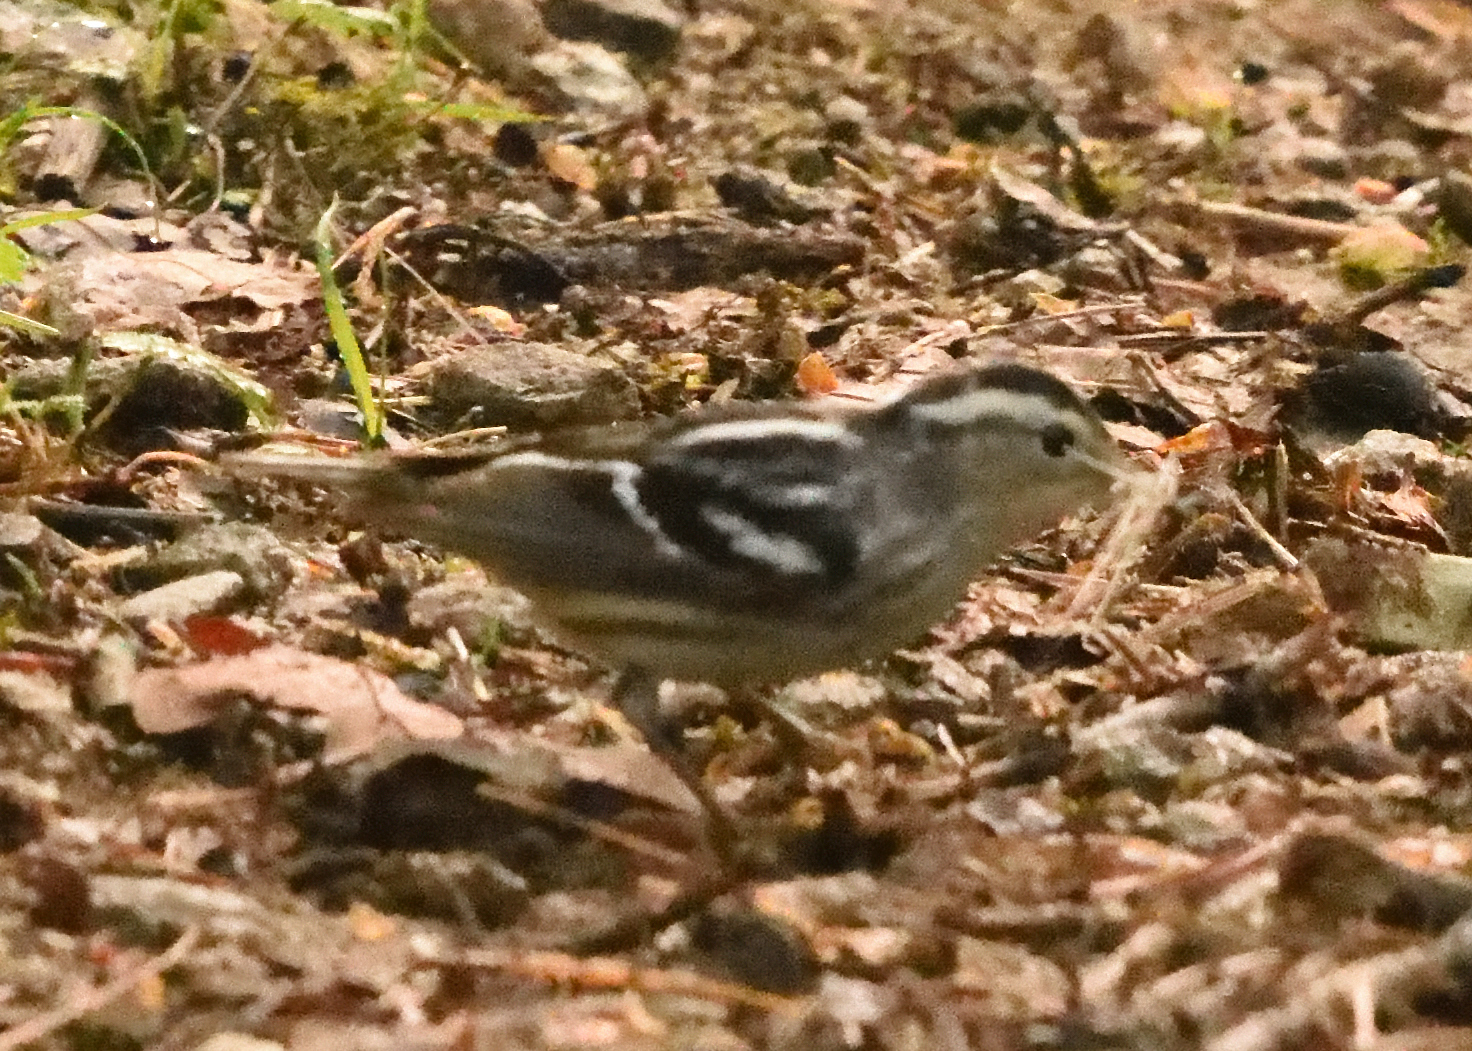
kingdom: Animalia
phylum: Chordata
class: Aves
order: Passeriformes
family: Parulidae
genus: Mniotilta
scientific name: Mniotilta varia
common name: Black-and-white warbler
